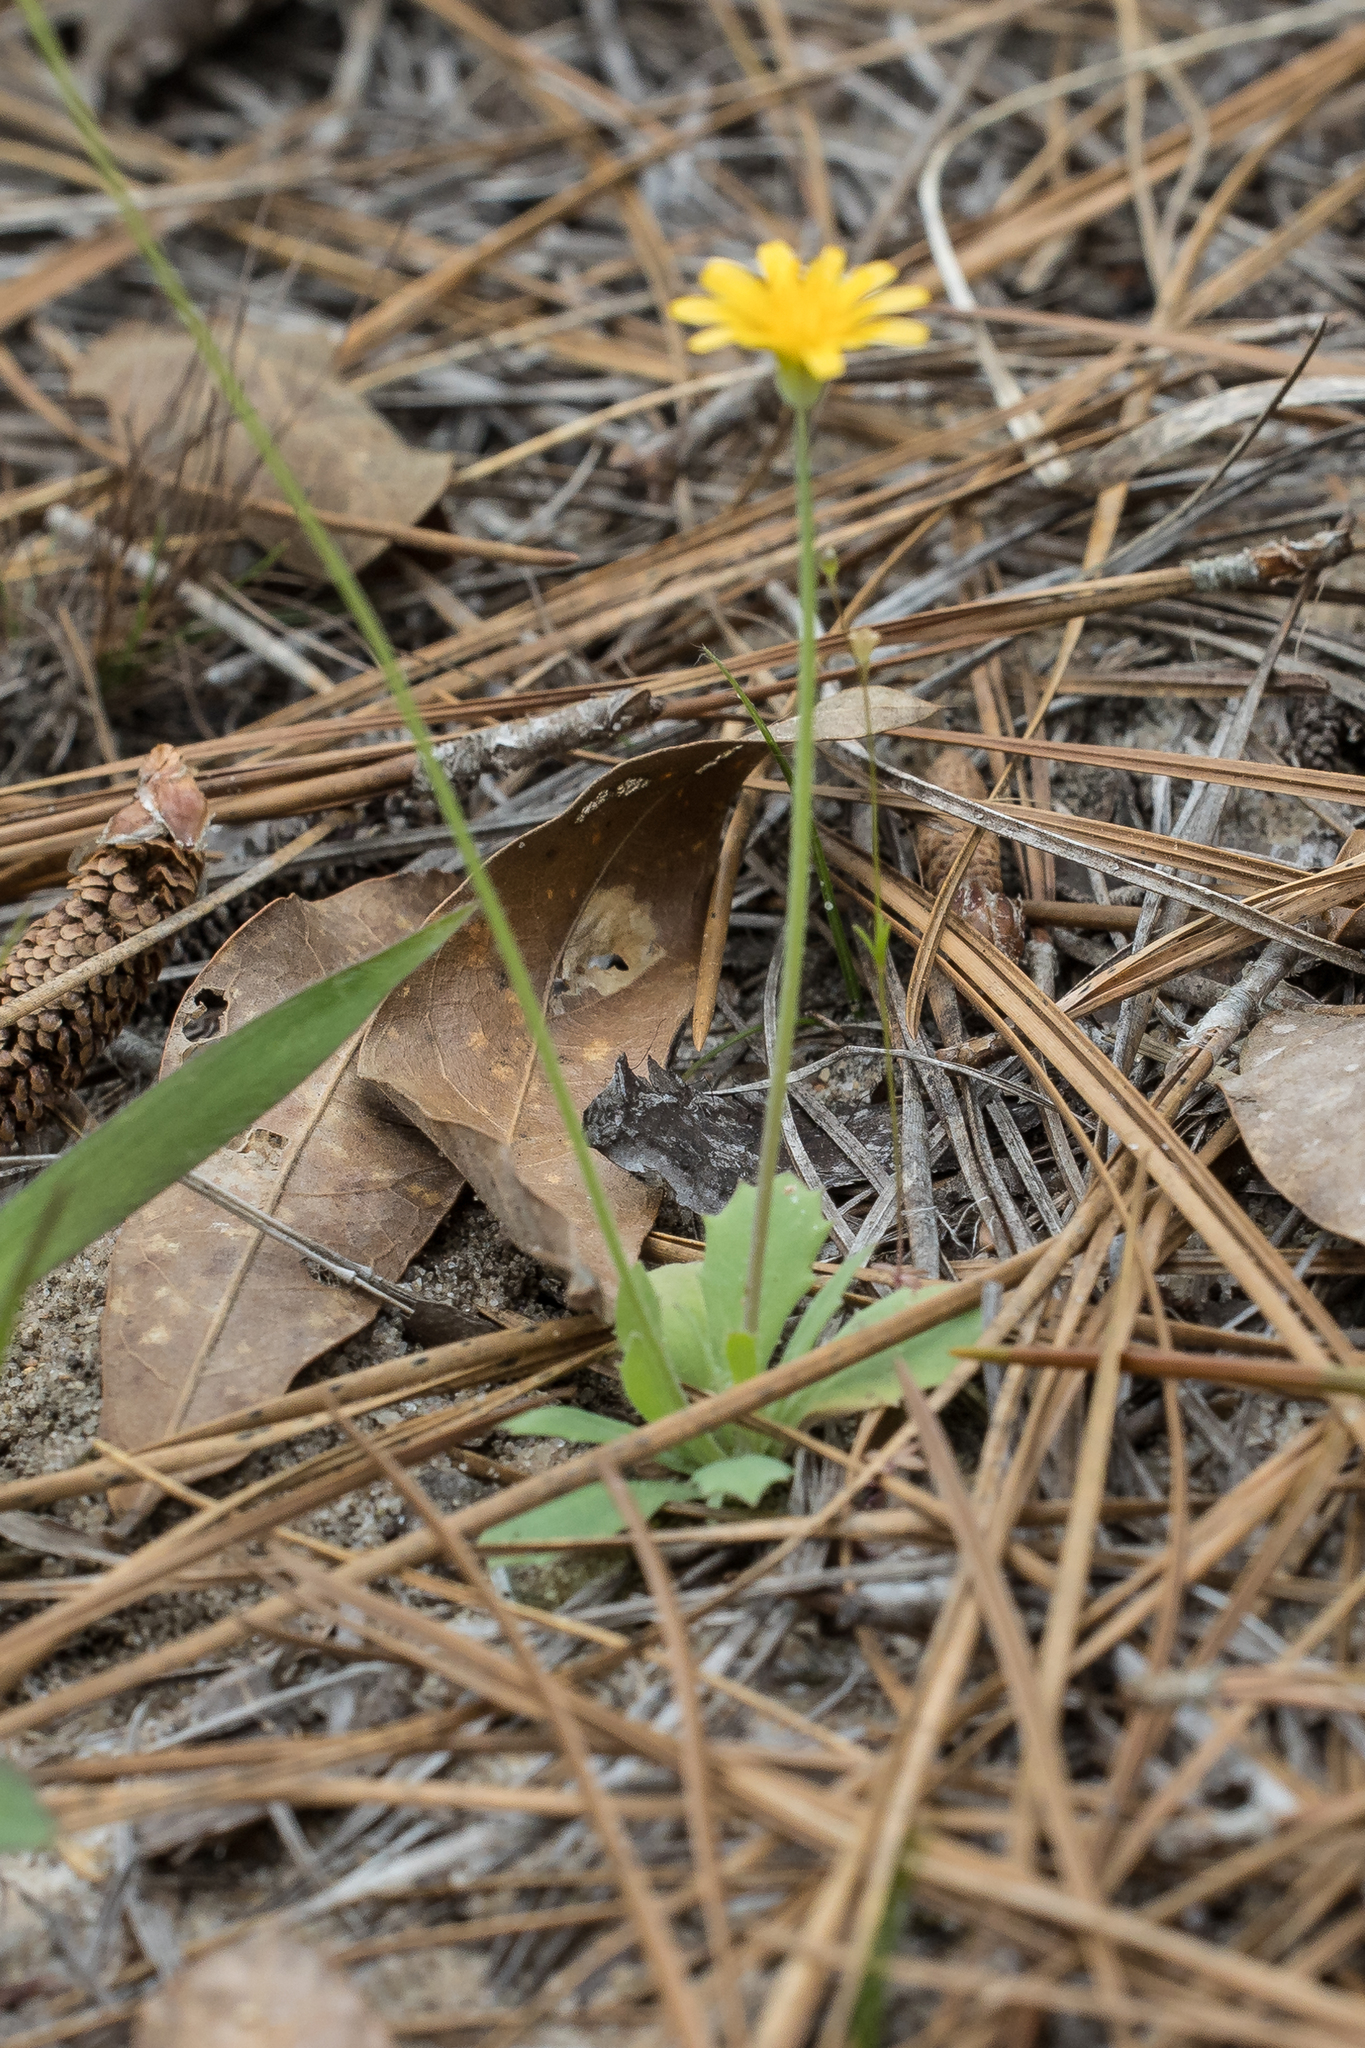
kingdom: Plantae
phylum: Tracheophyta
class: Magnoliopsida
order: Asterales
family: Asteraceae
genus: Krigia
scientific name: Krigia virginica
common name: Virginia dwarf-dandelion
